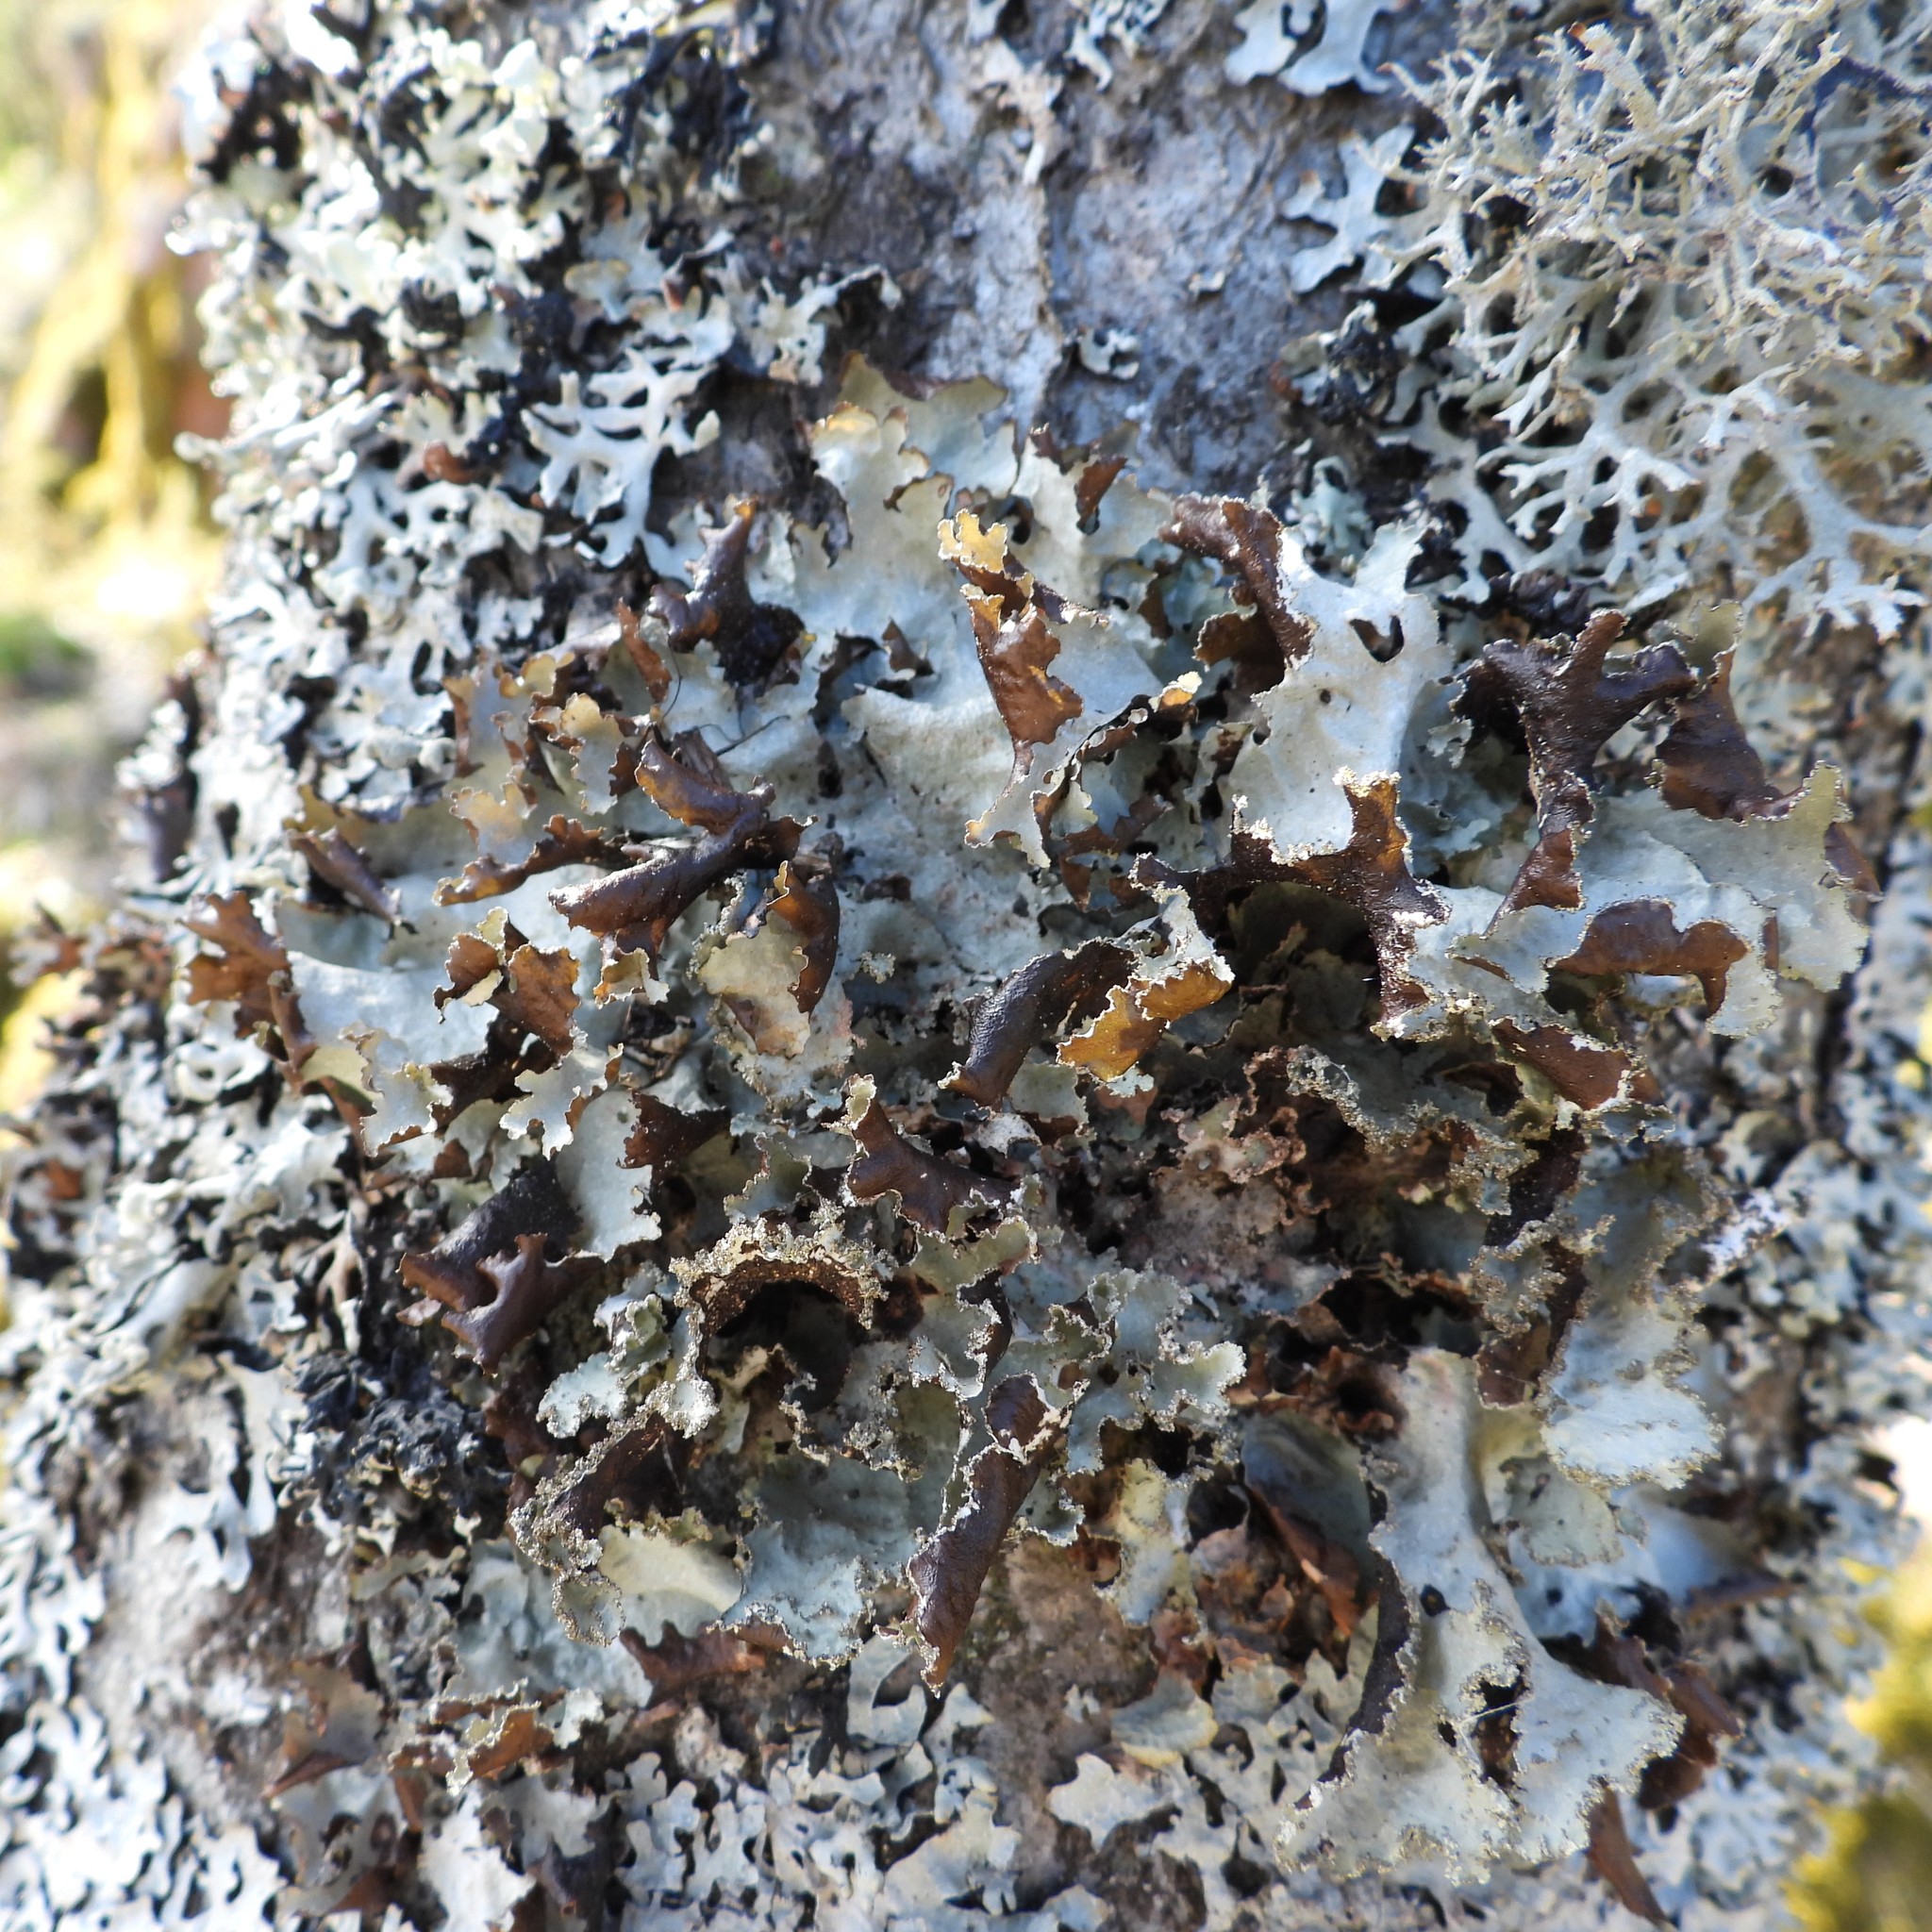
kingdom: Fungi
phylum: Ascomycota
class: Lecanoromycetes
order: Lecanorales
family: Parmeliaceae
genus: Platismatia
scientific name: Platismatia glauca
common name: Varied rag lichen
